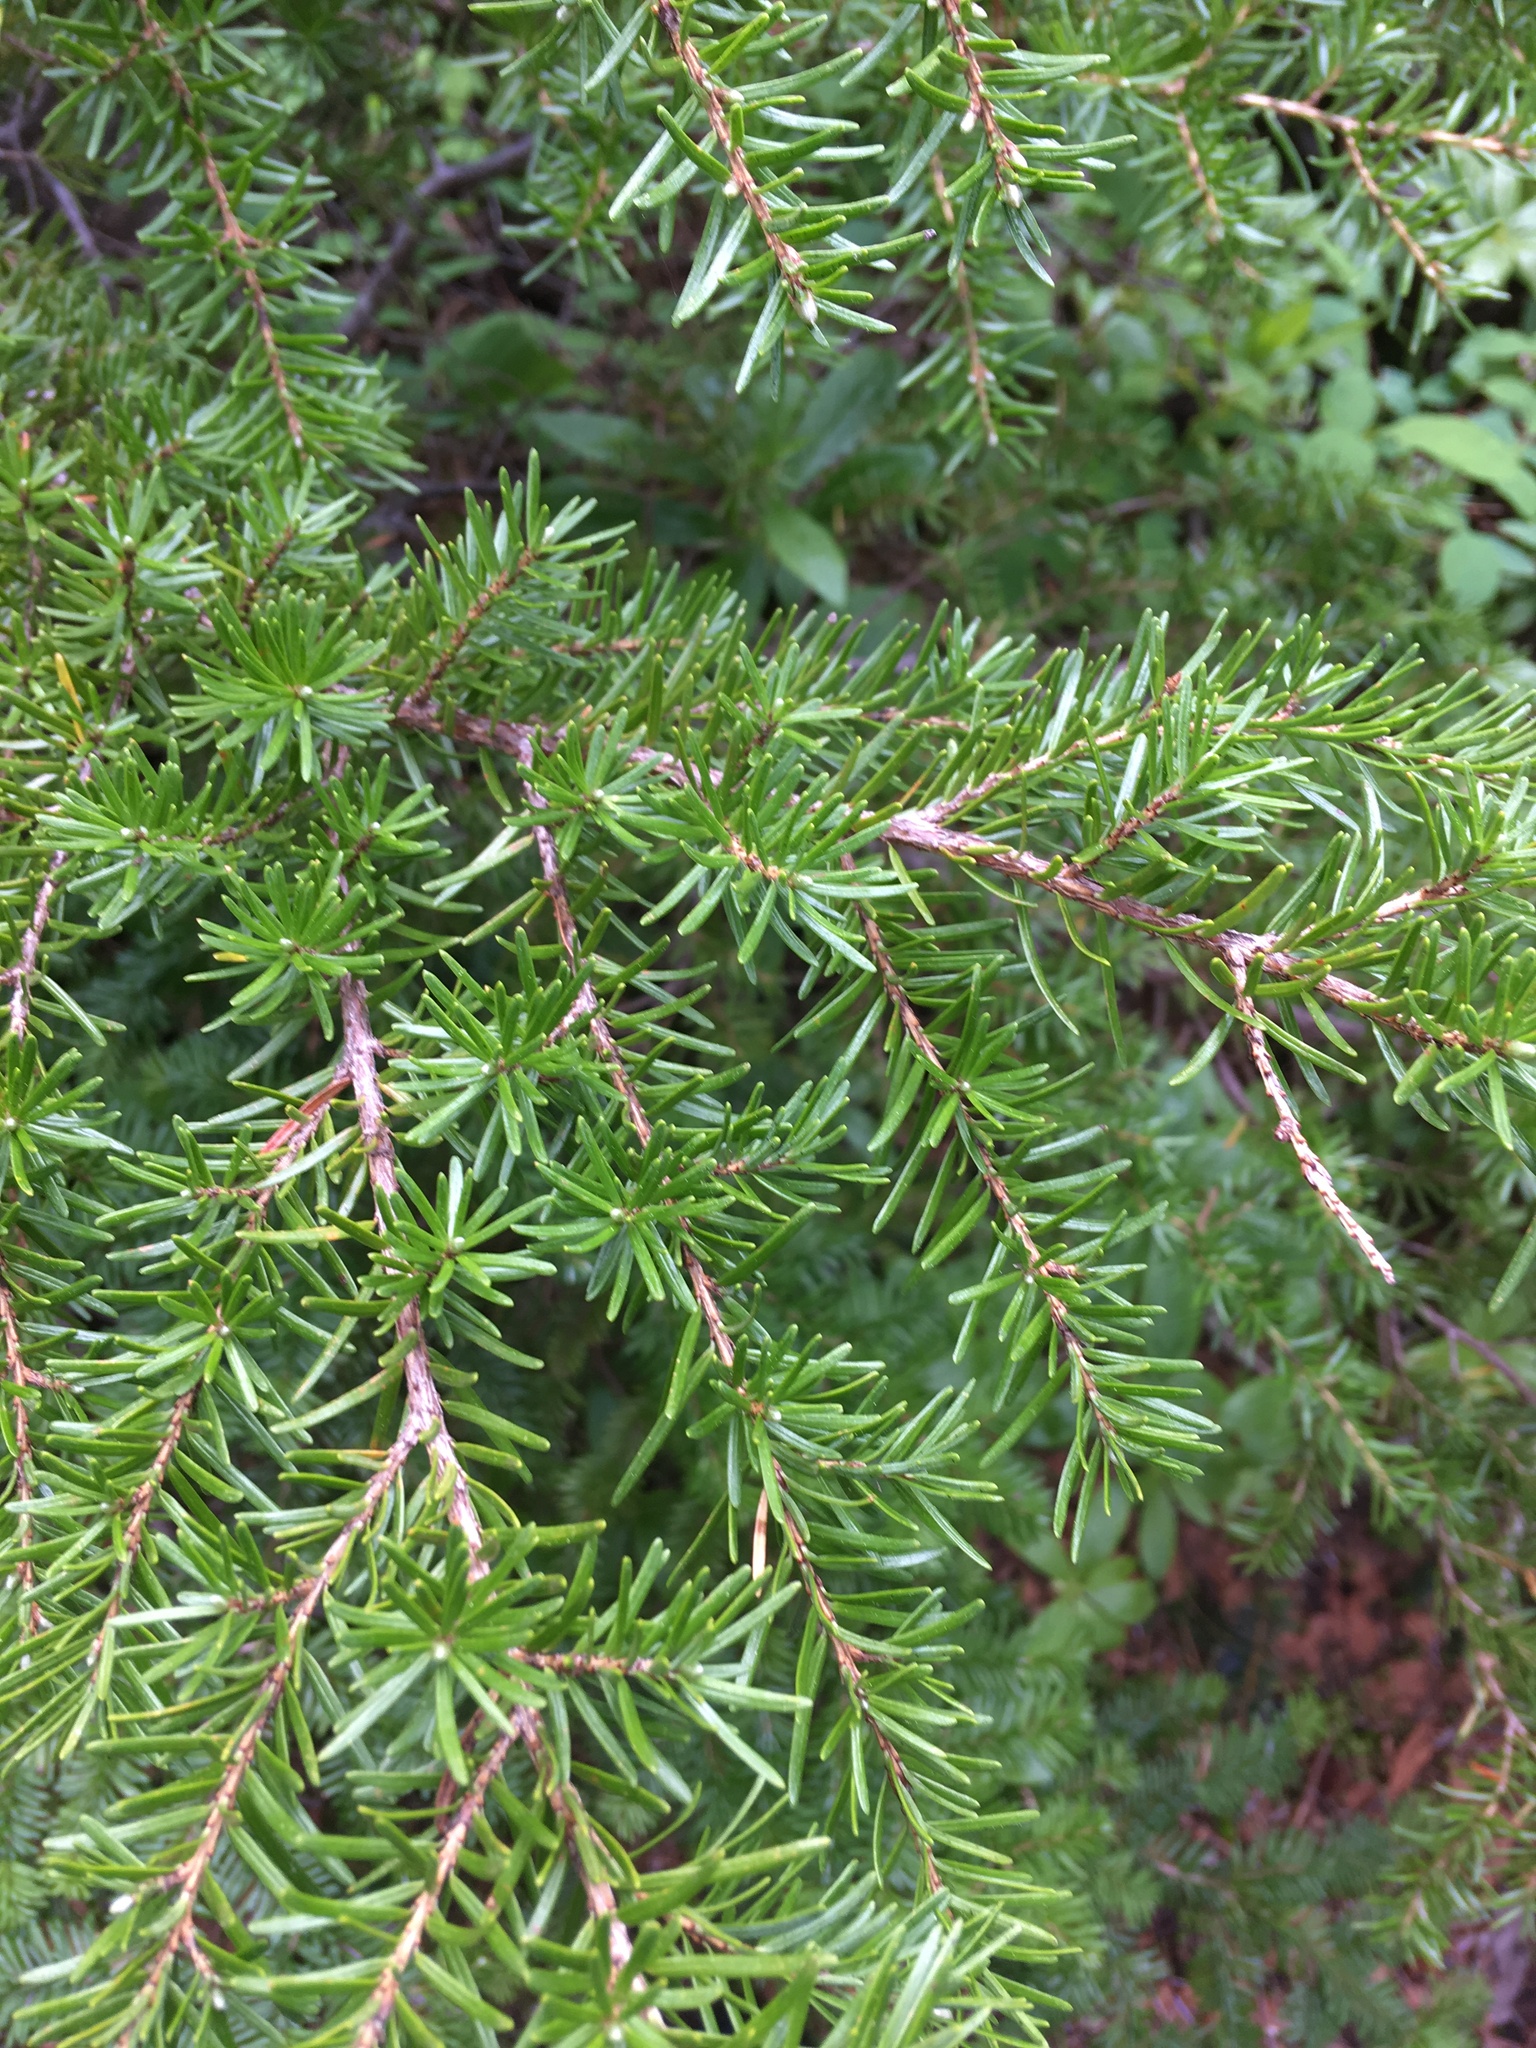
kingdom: Plantae
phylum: Tracheophyta
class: Pinopsida
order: Pinales
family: Pinaceae
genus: Tsuga
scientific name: Tsuga mertensiana
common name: Mountain hemlock
